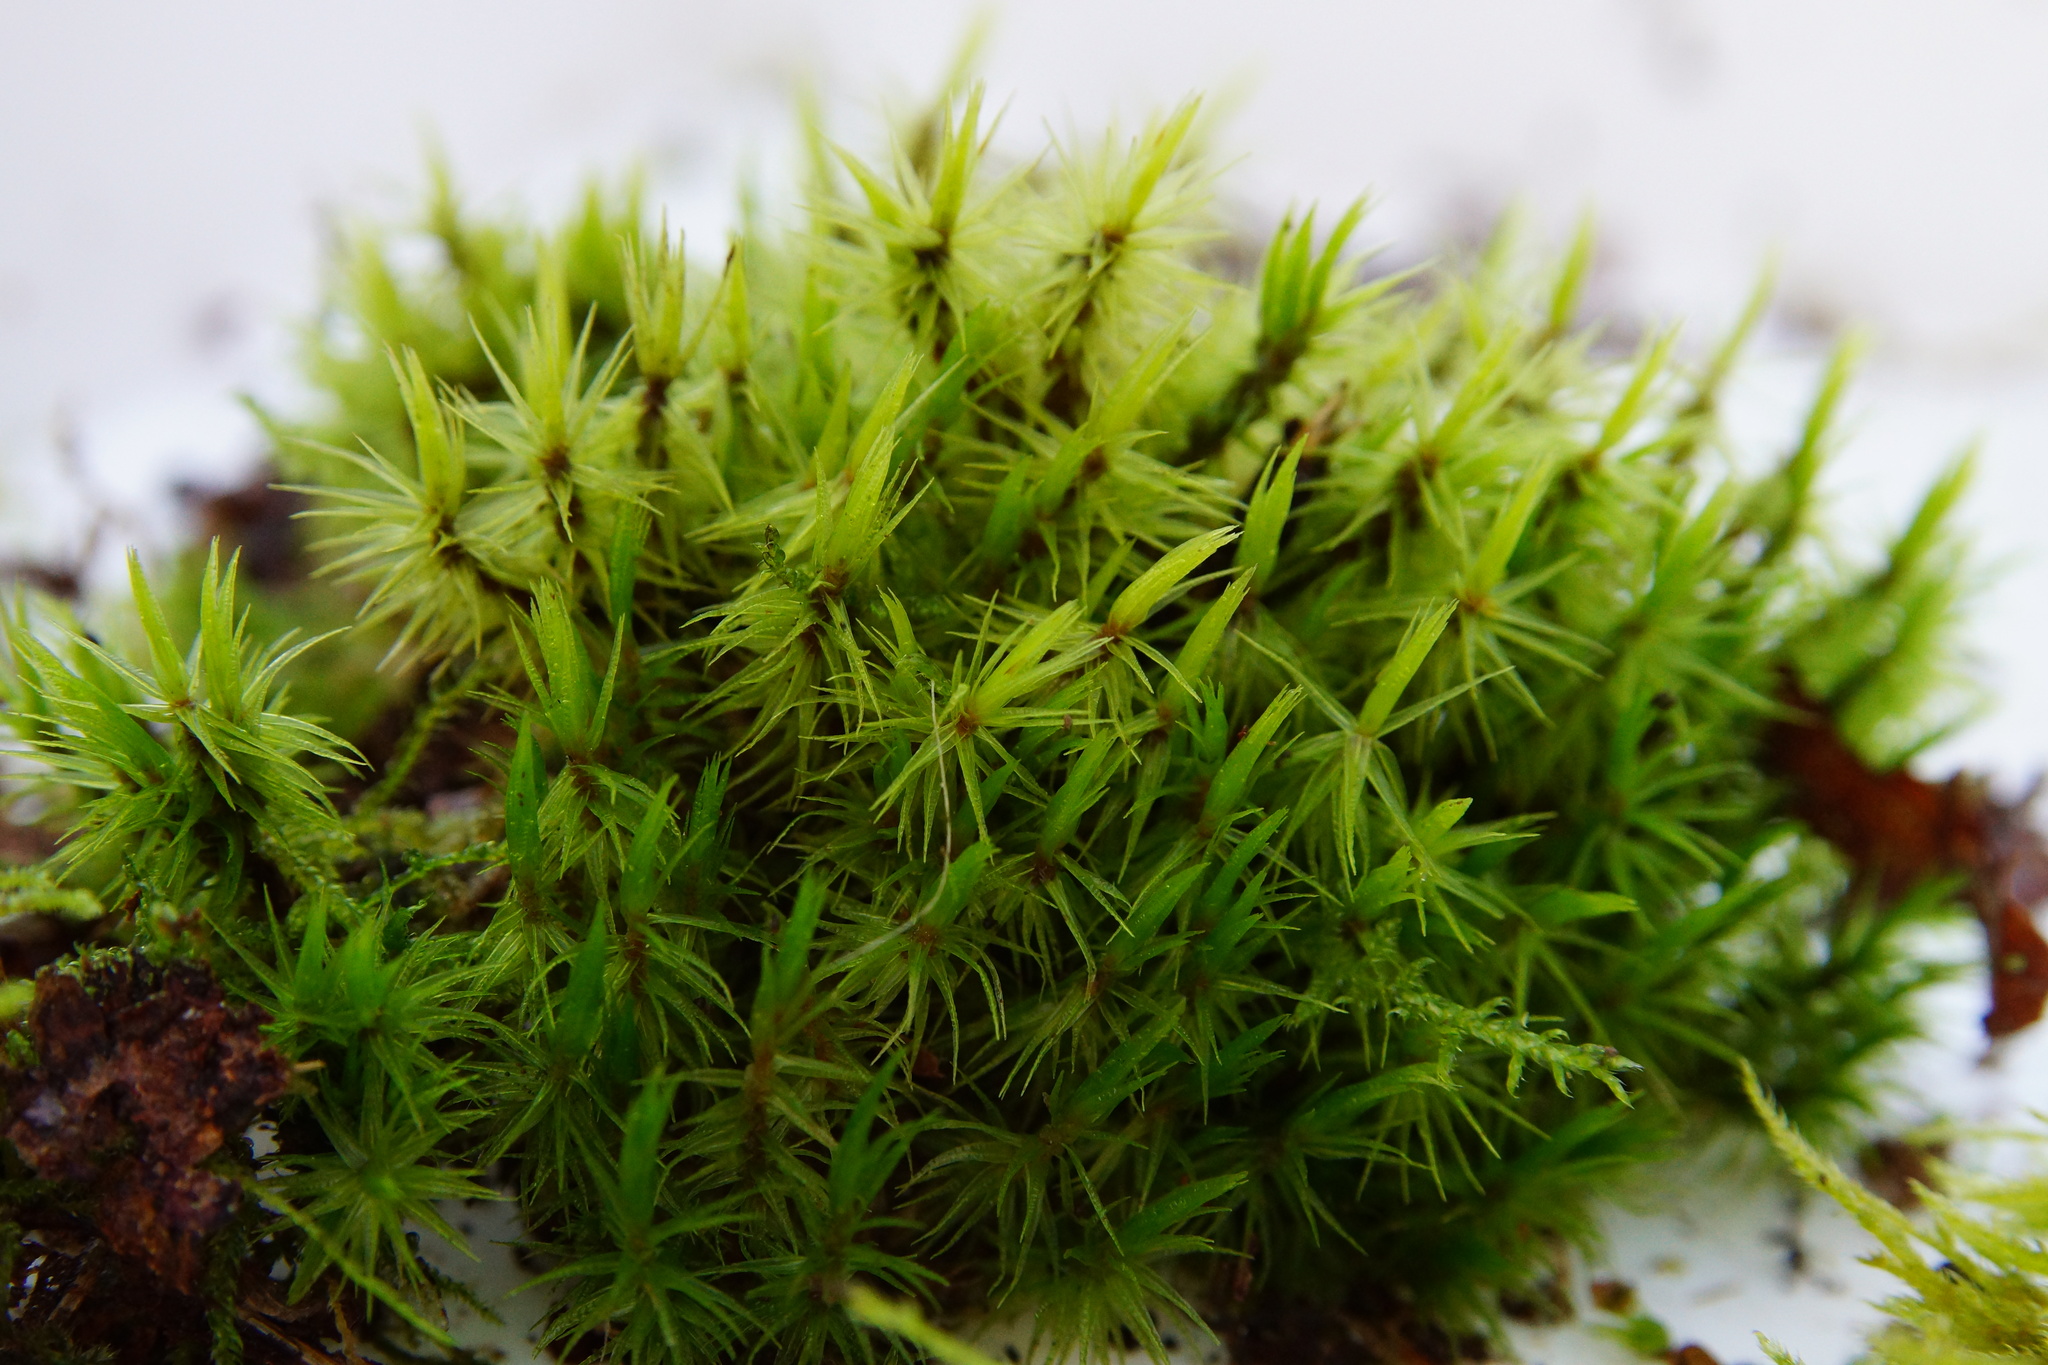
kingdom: Plantae
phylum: Bryophyta
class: Bryopsida
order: Dicranales
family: Dicranaceae
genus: Dicranum
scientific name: Dicranum scoparium
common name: Broom fork-moss
